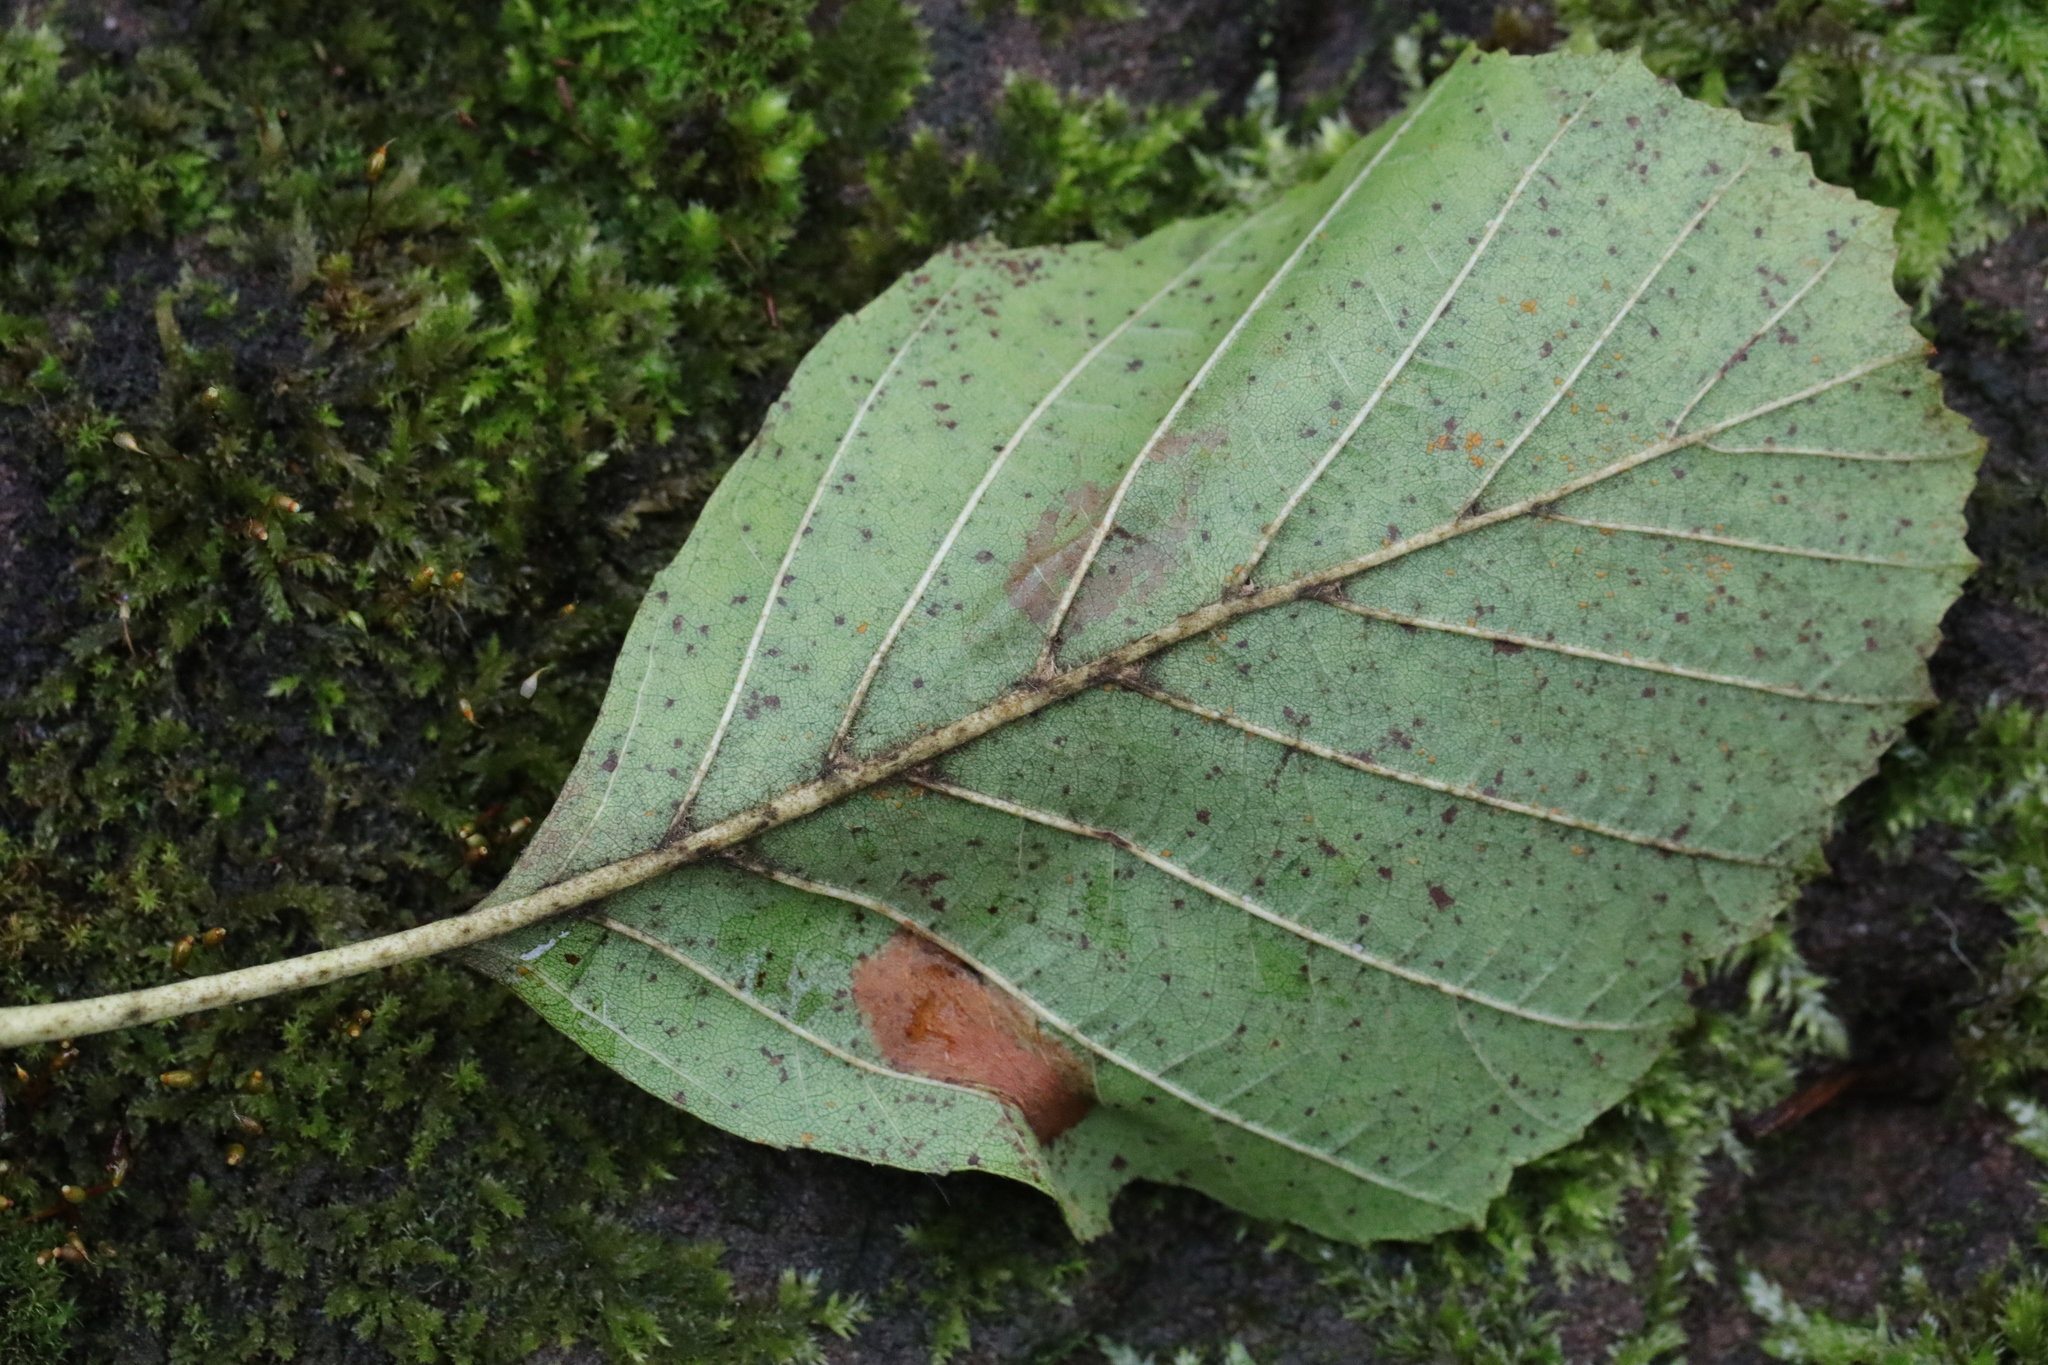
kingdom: Animalia
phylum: Arthropoda
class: Insecta
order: Lepidoptera
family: Gracillariidae
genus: Phyllonorycter
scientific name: Phyllonorycter klemannella
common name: Dark alder midget
